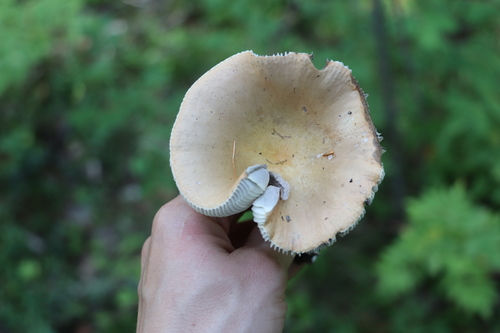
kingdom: Fungi
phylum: Basidiomycota
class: Agaricomycetes
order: Russulales
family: Russulaceae
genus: Russula
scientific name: Russula decolorans
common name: Copper brittlegill
